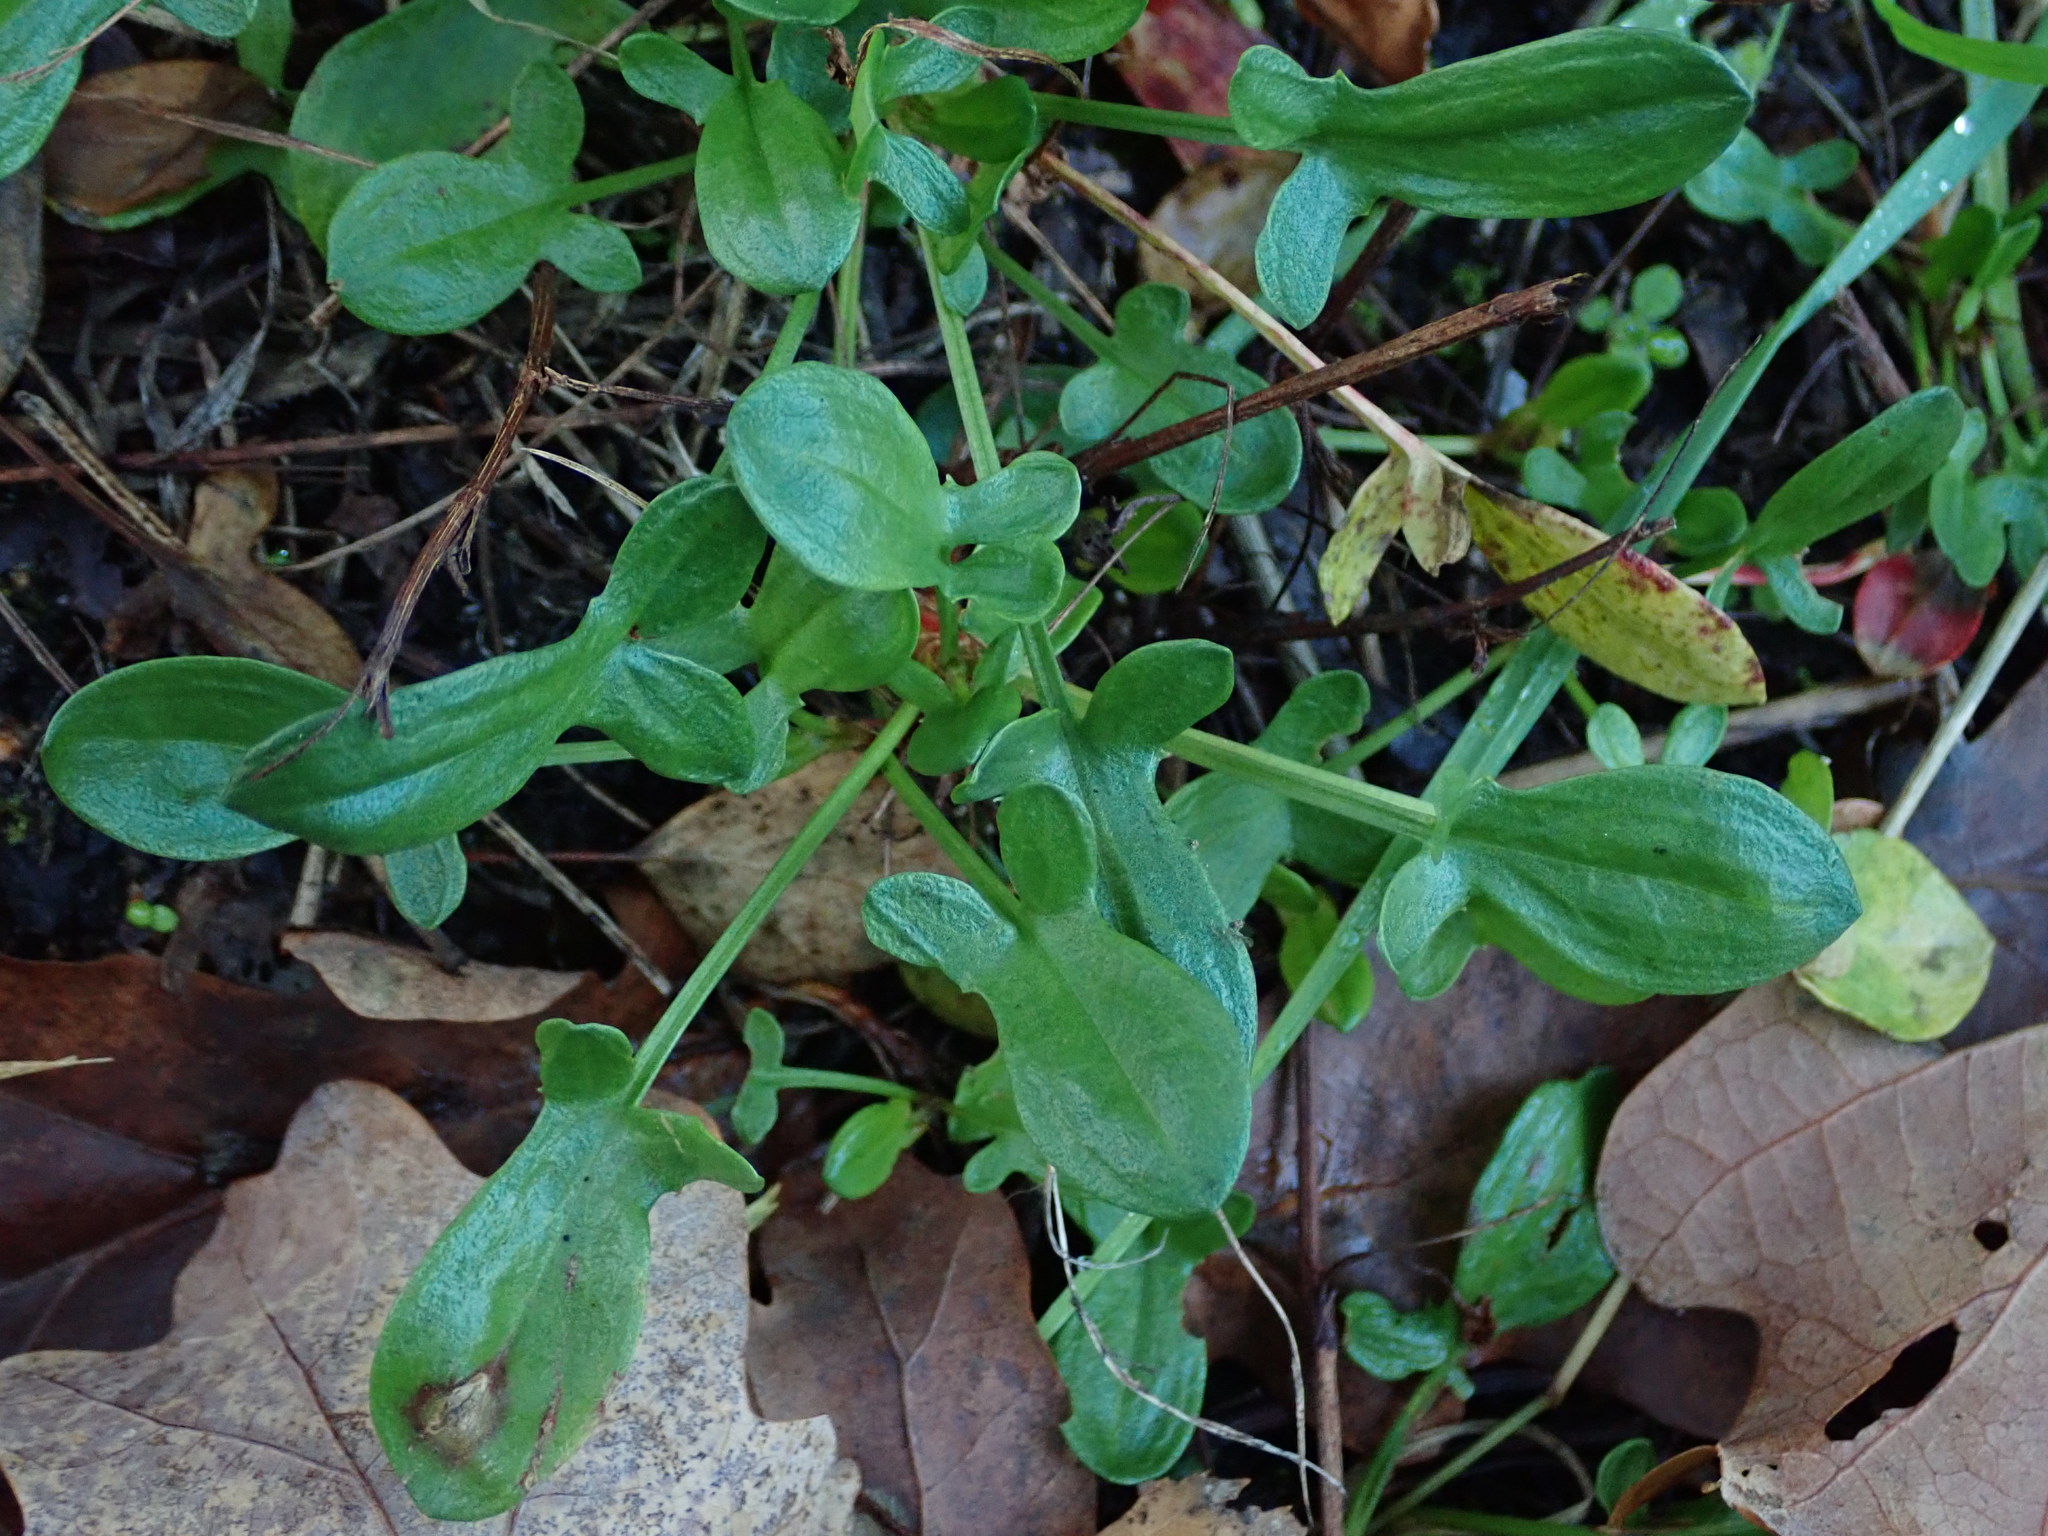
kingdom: Plantae
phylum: Tracheophyta
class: Magnoliopsida
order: Caryophyllales
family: Polygonaceae
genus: Rumex
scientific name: Rumex acetosella
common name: Common sheep sorrel
